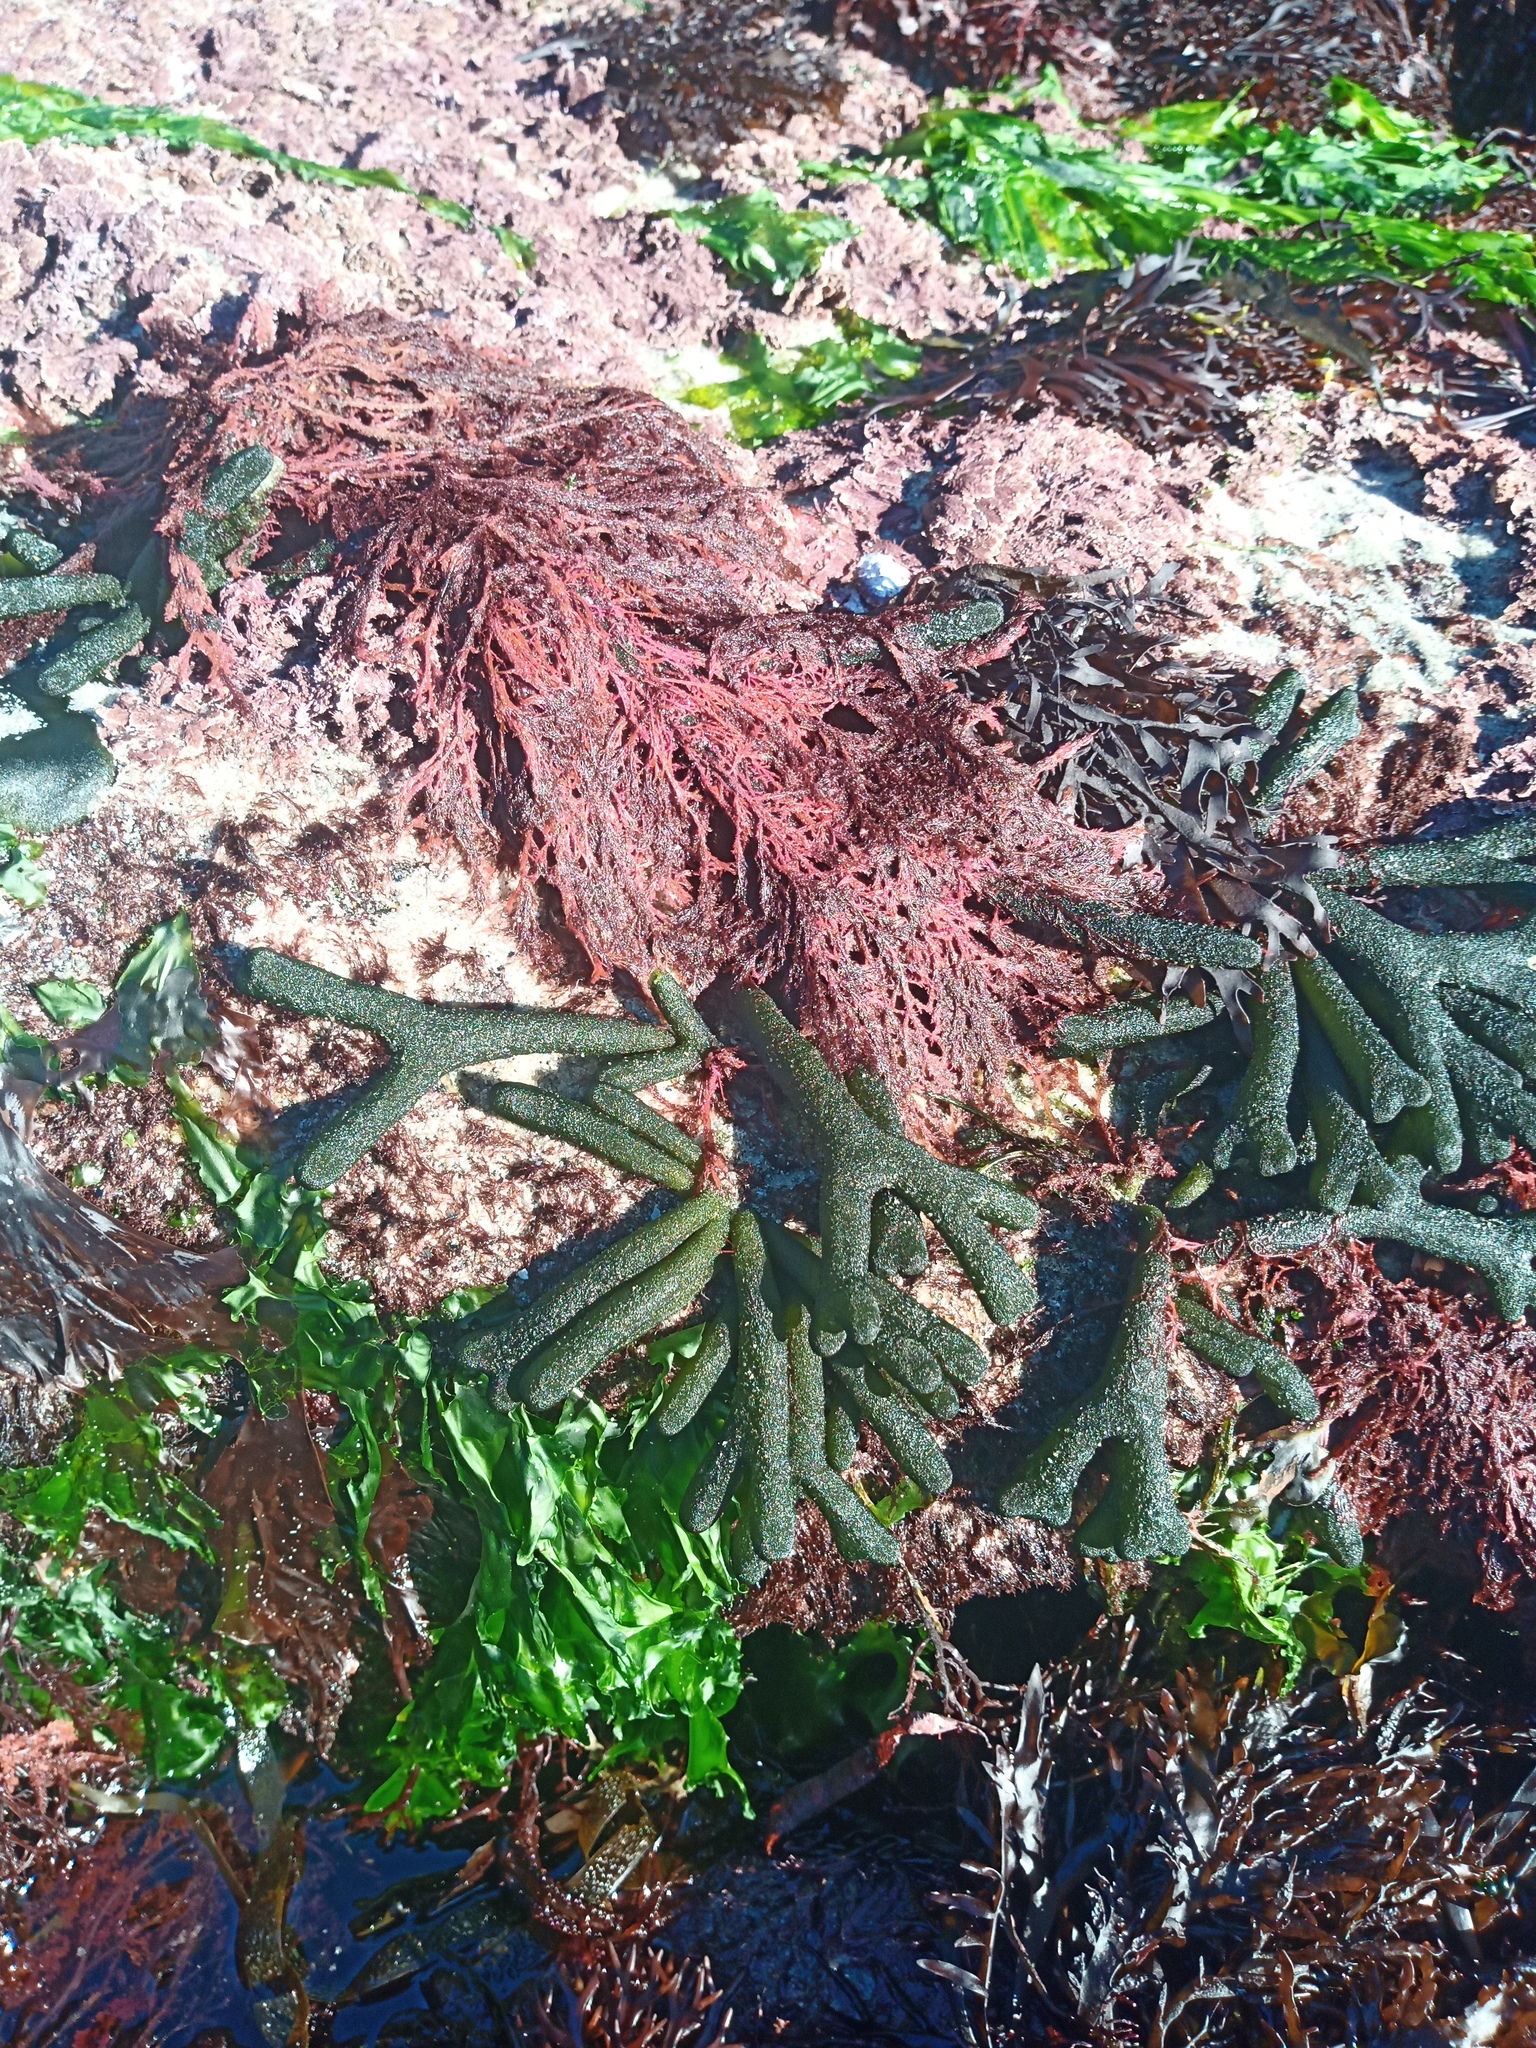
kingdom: Plantae
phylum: Chlorophyta
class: Ulvophyceae
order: Bryopsidales
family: Codiaceae
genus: Codium
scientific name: Codium fragile
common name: Dead man's fingers
